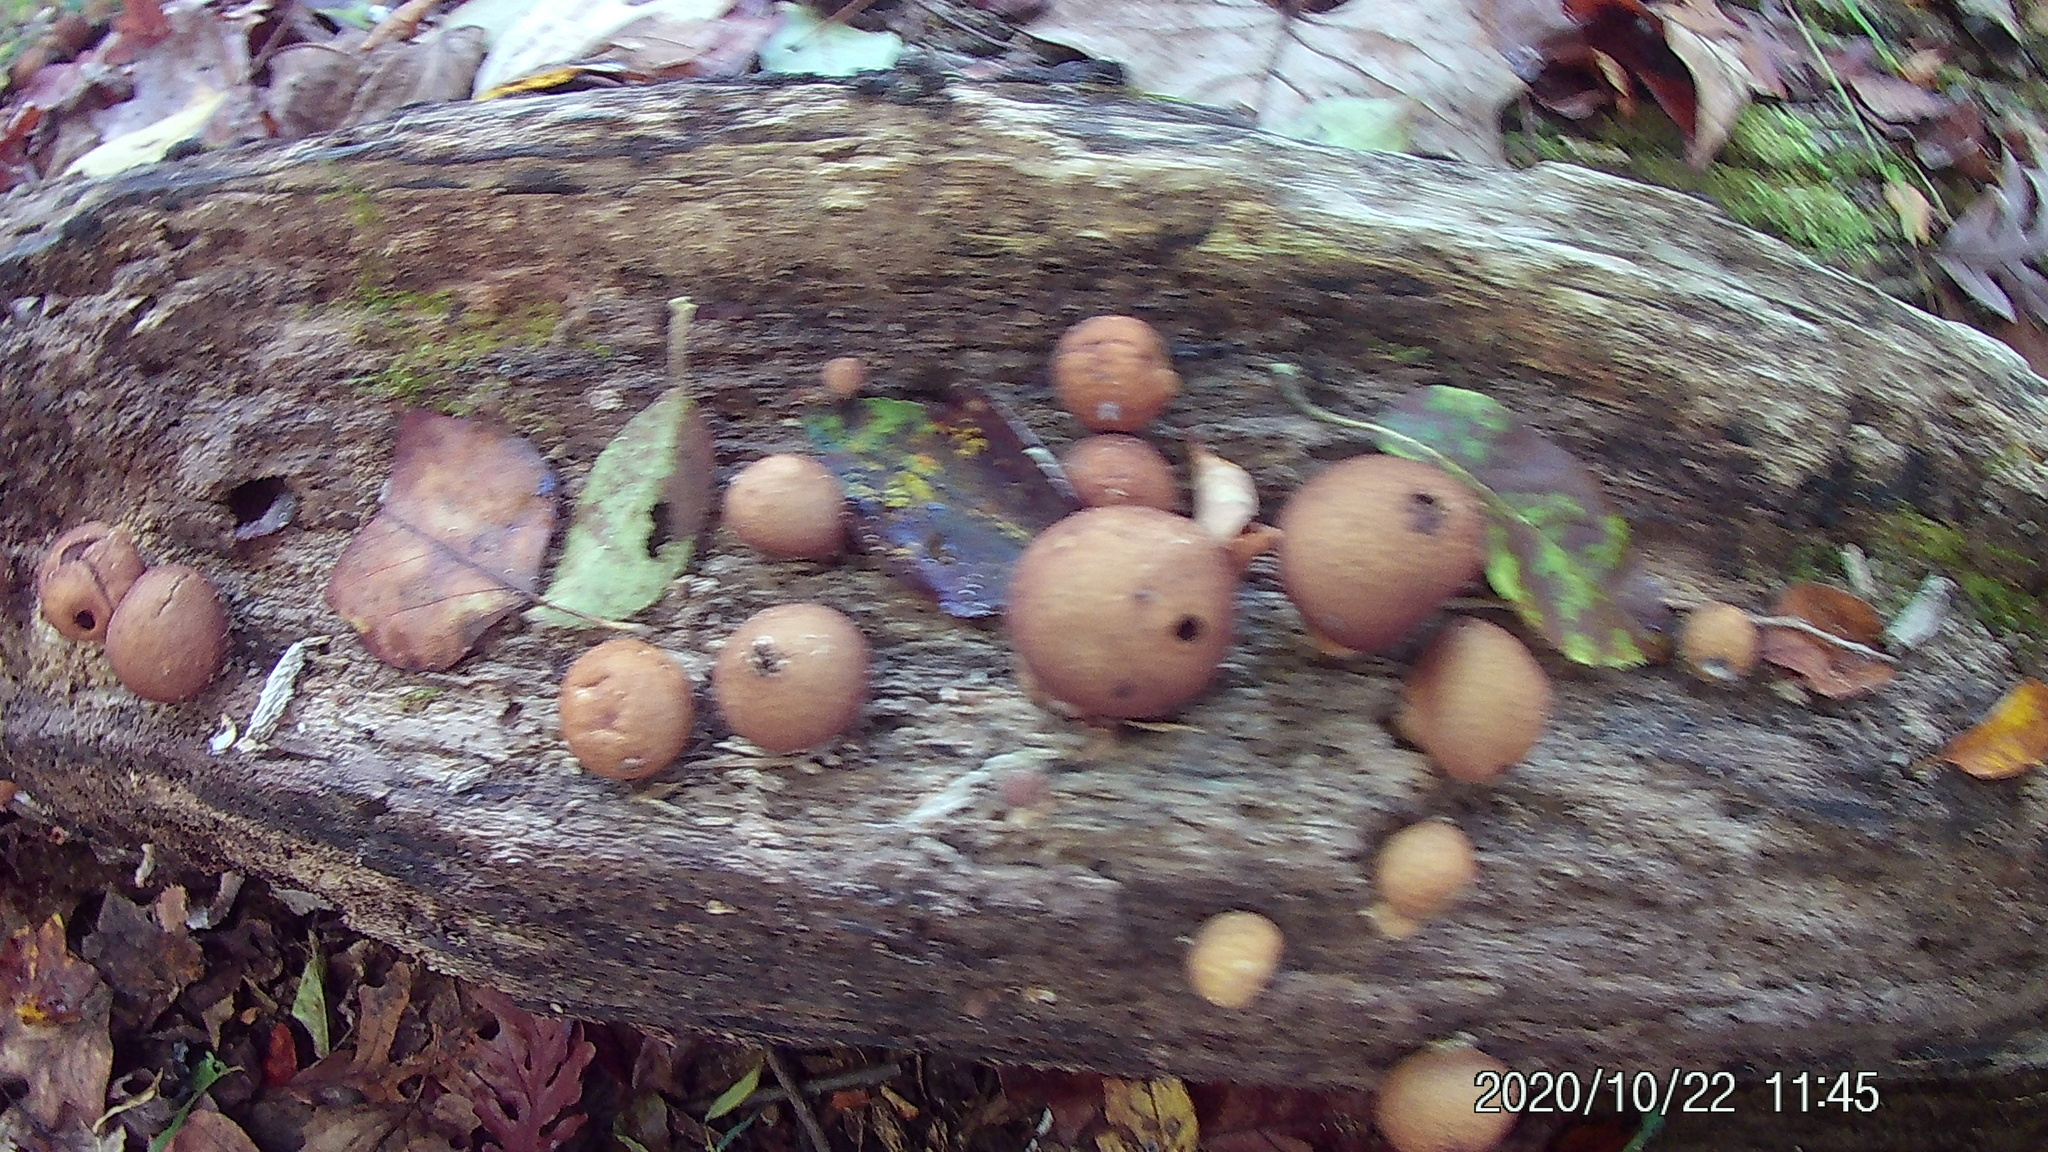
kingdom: Fungi
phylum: Basidiomycota
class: Agaricomycetes
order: Agaricales
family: Lycoperdaceae
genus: Apioperdon
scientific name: Apioperdon pyriforme
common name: Pear-shaped puffball
